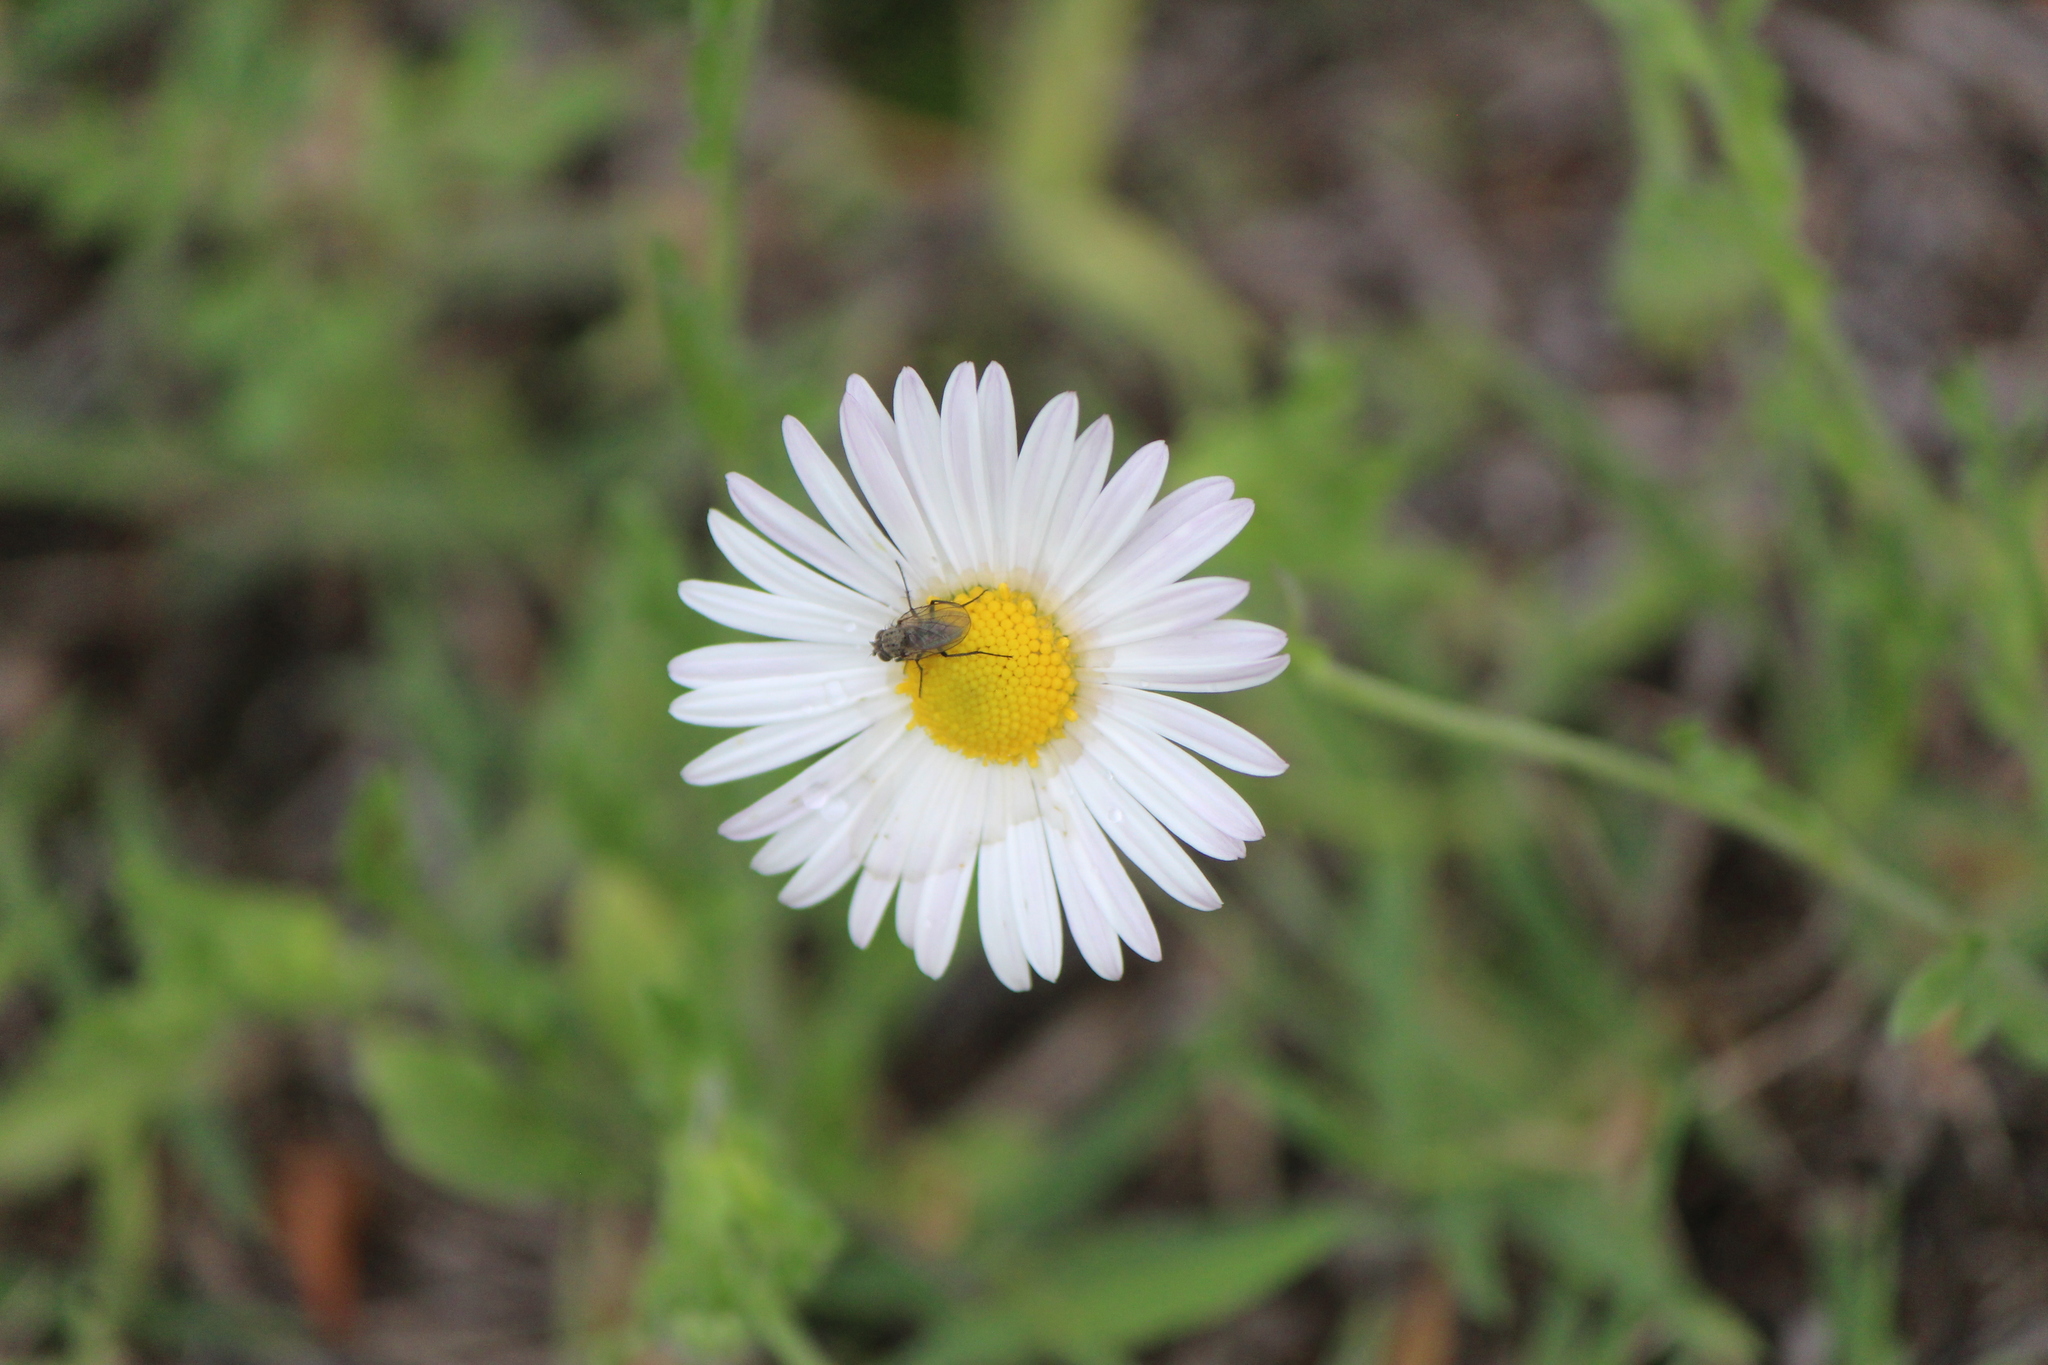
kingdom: Plantae
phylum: Tracheophyta
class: Magnoliopsida
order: Asterales
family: Asteraceae
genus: Aphanostephus
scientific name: Aphanostephus ramosissimus
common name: Plains lazy daisy
